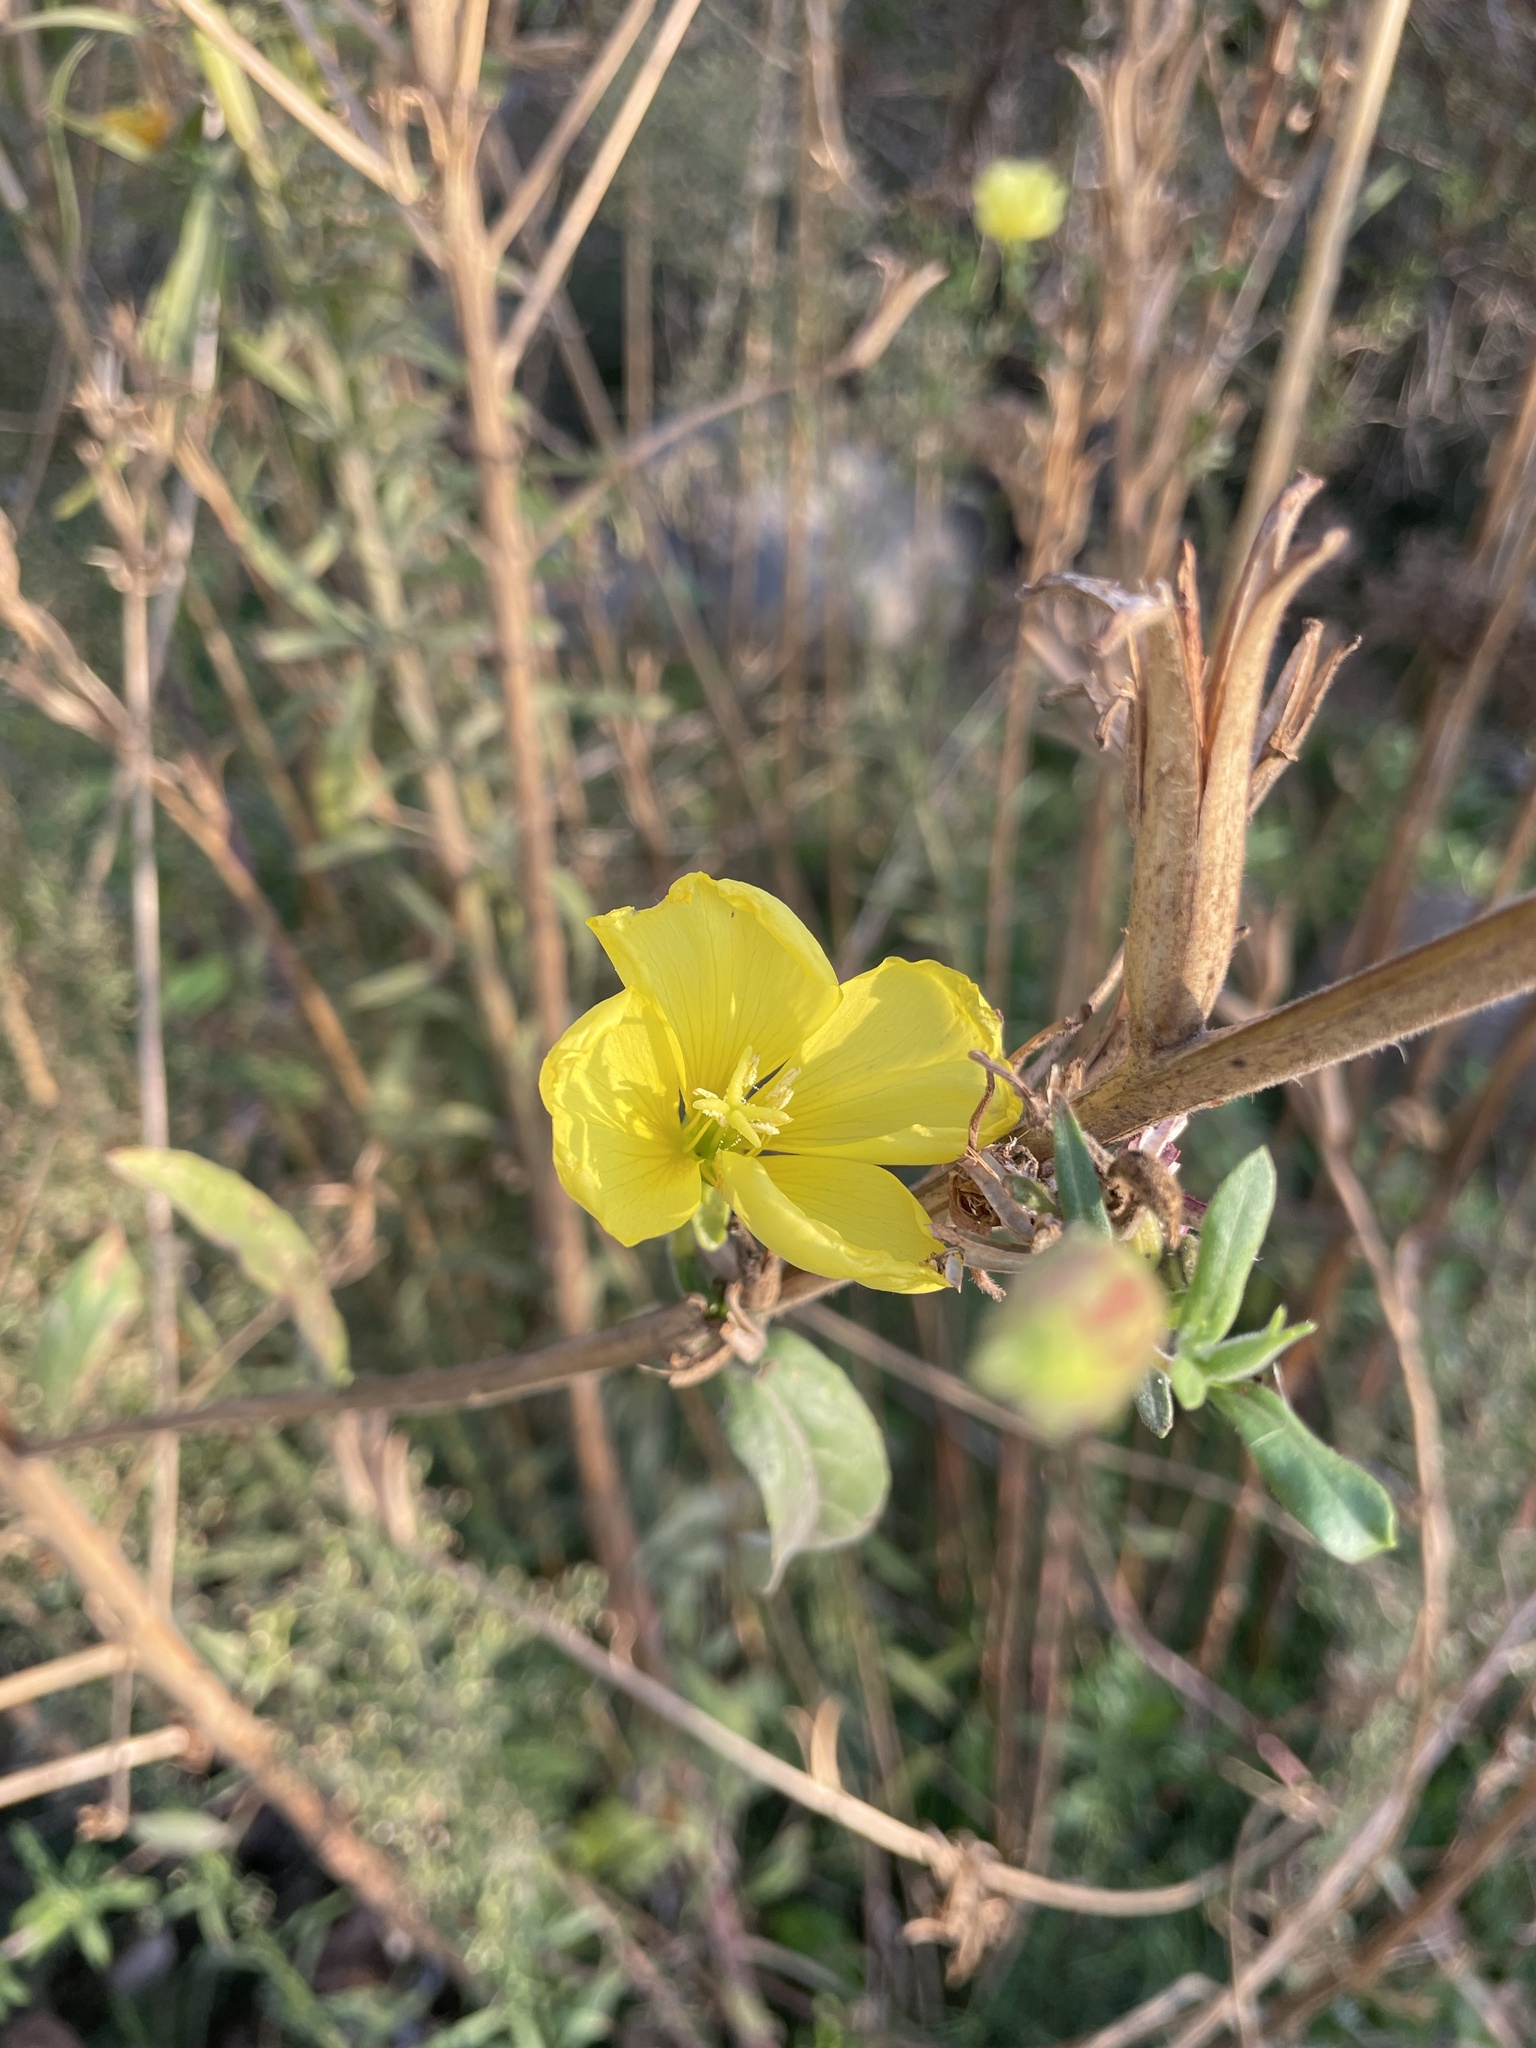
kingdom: Plantae
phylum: Tracheophyta
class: Magnoliopsida
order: Myrtales
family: Onagraceae
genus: Oenothera
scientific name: Oenothera elata
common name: Hooker's evening-primrose
